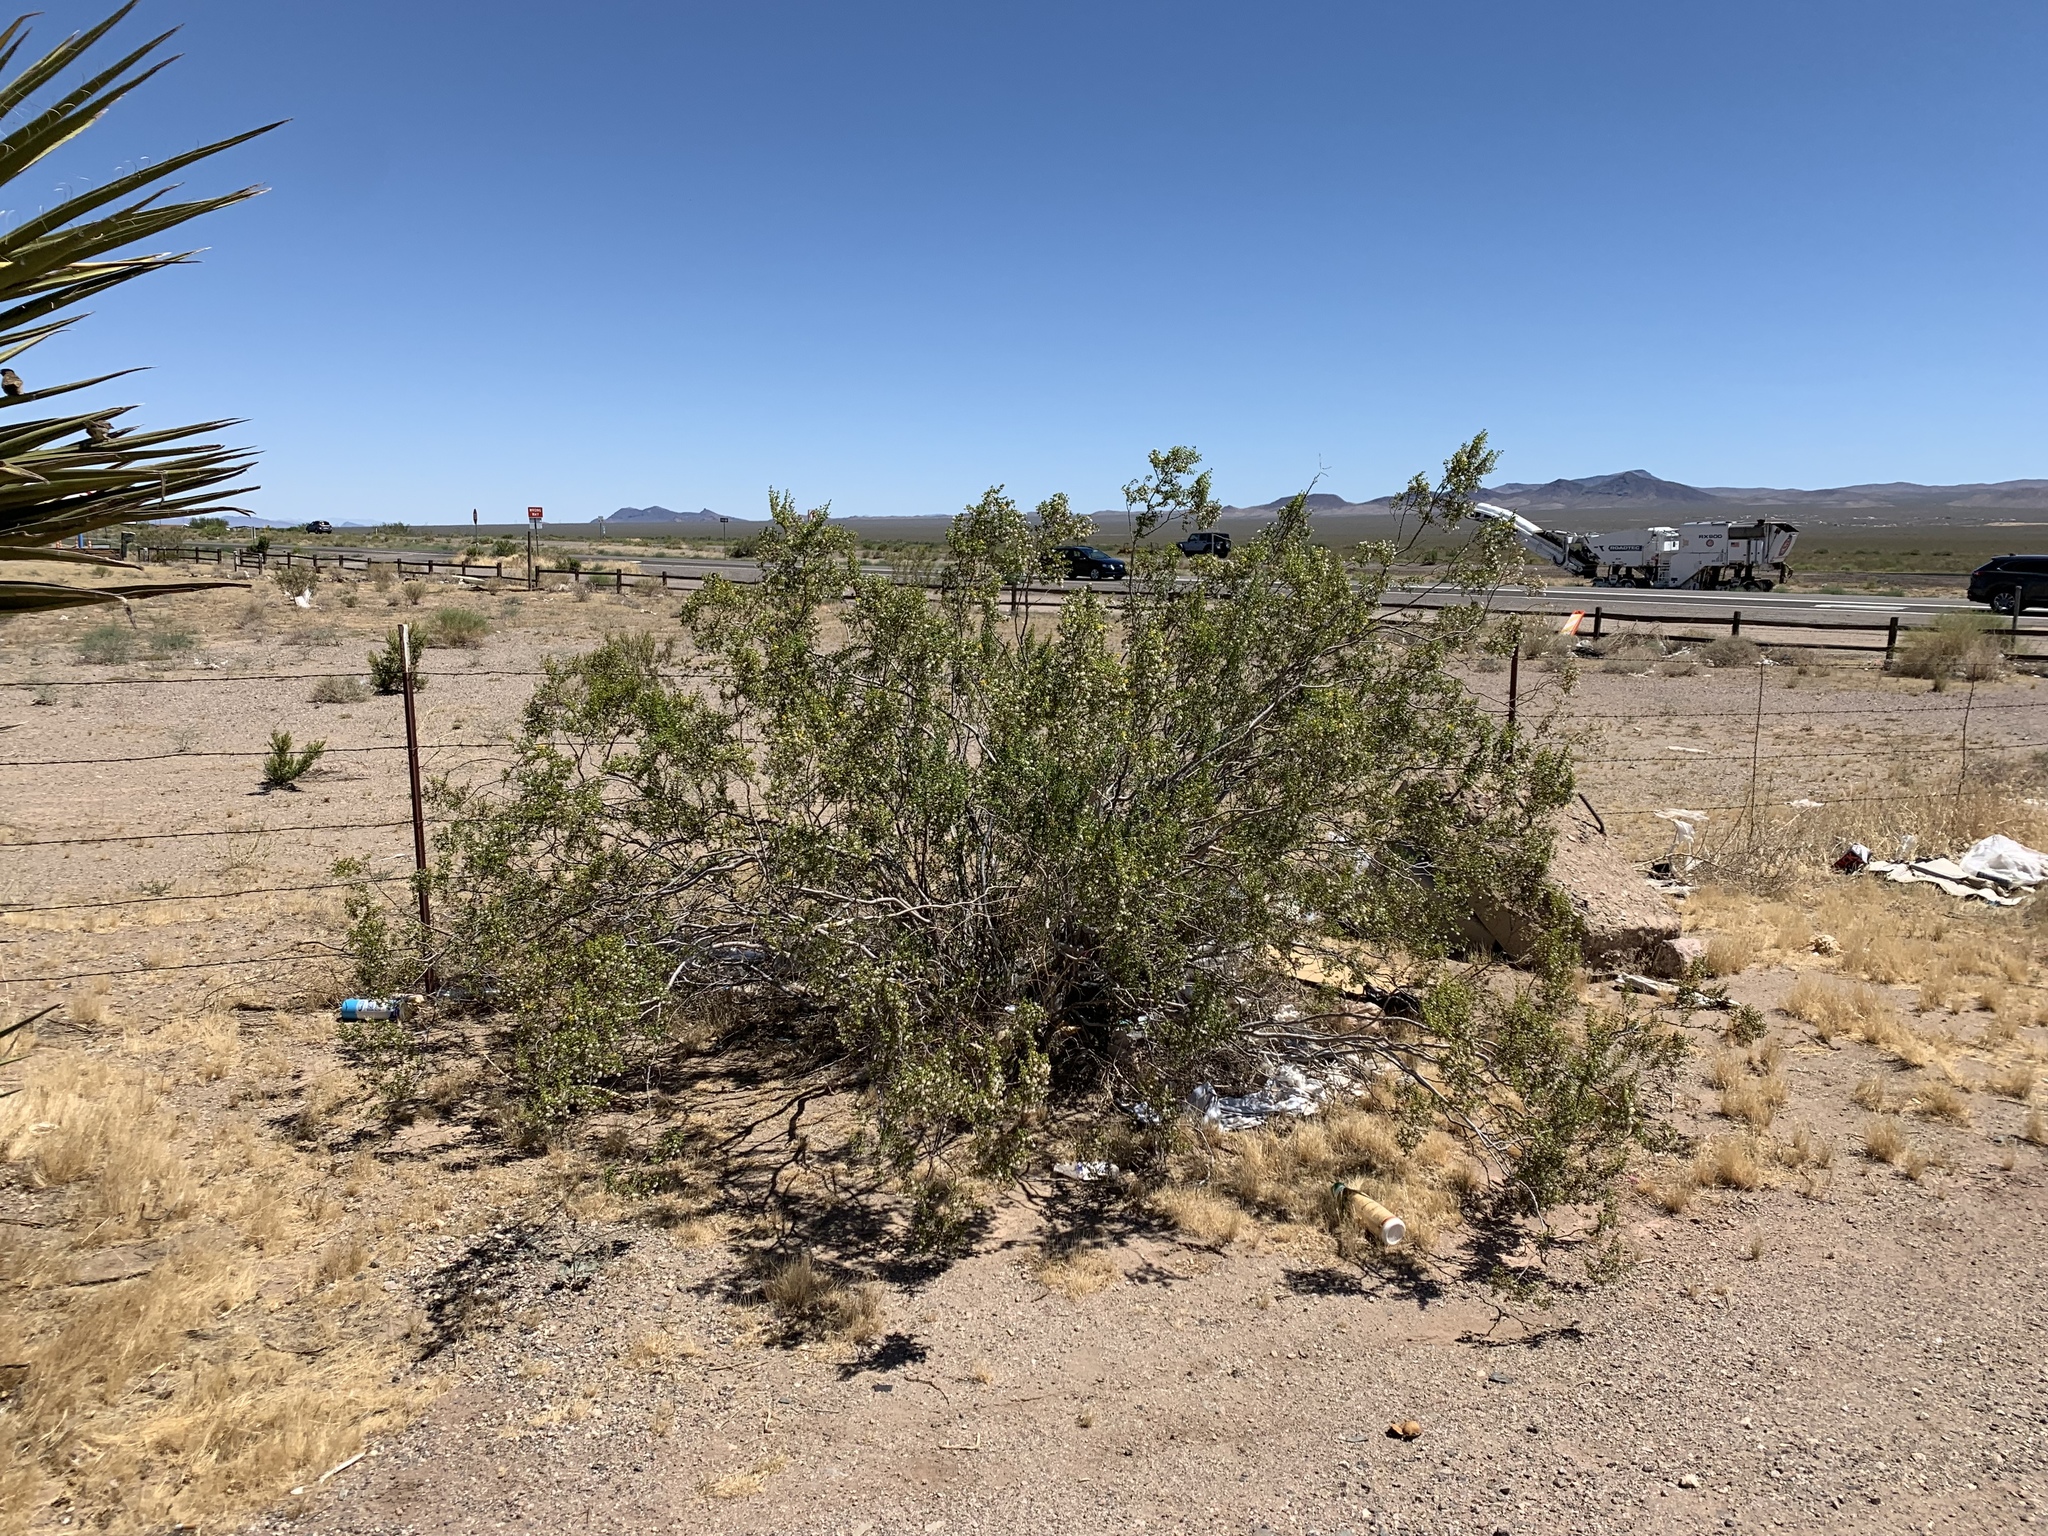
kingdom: Plantae
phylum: Tracheophyta
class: Magnoliopsida
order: Zygophyllales
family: Zygophyllaceae
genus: Larrea
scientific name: Larrea tridentata
